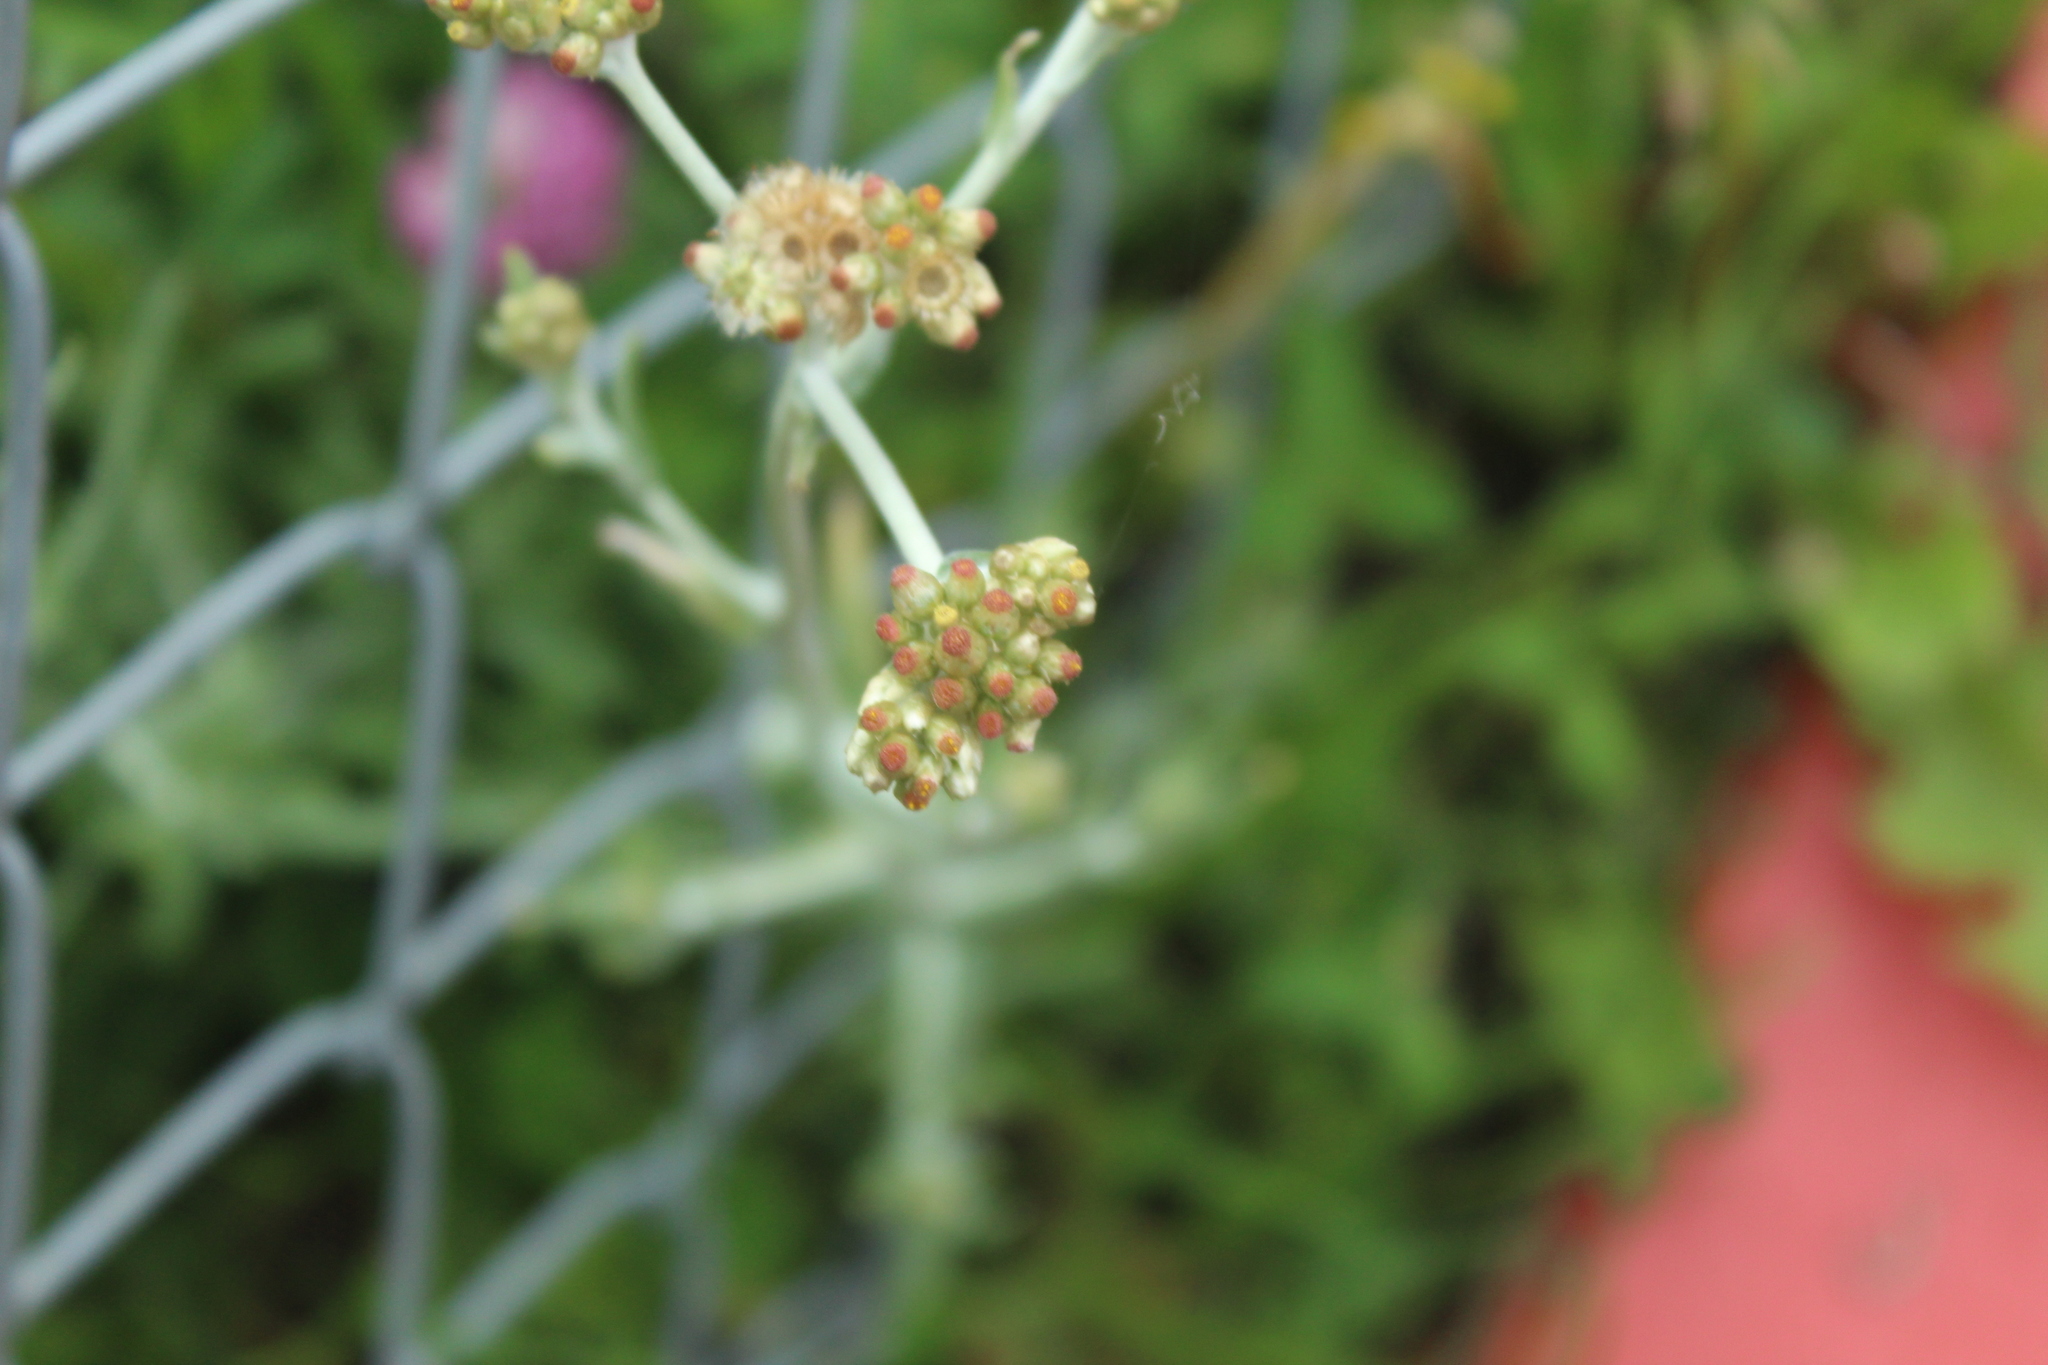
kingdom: Plantae
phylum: Tracheophyta
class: Magnoliopsida
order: Asterales
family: Asteraceae
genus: Helichrysum
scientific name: Helichrysum luteoalbum
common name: Daisy
